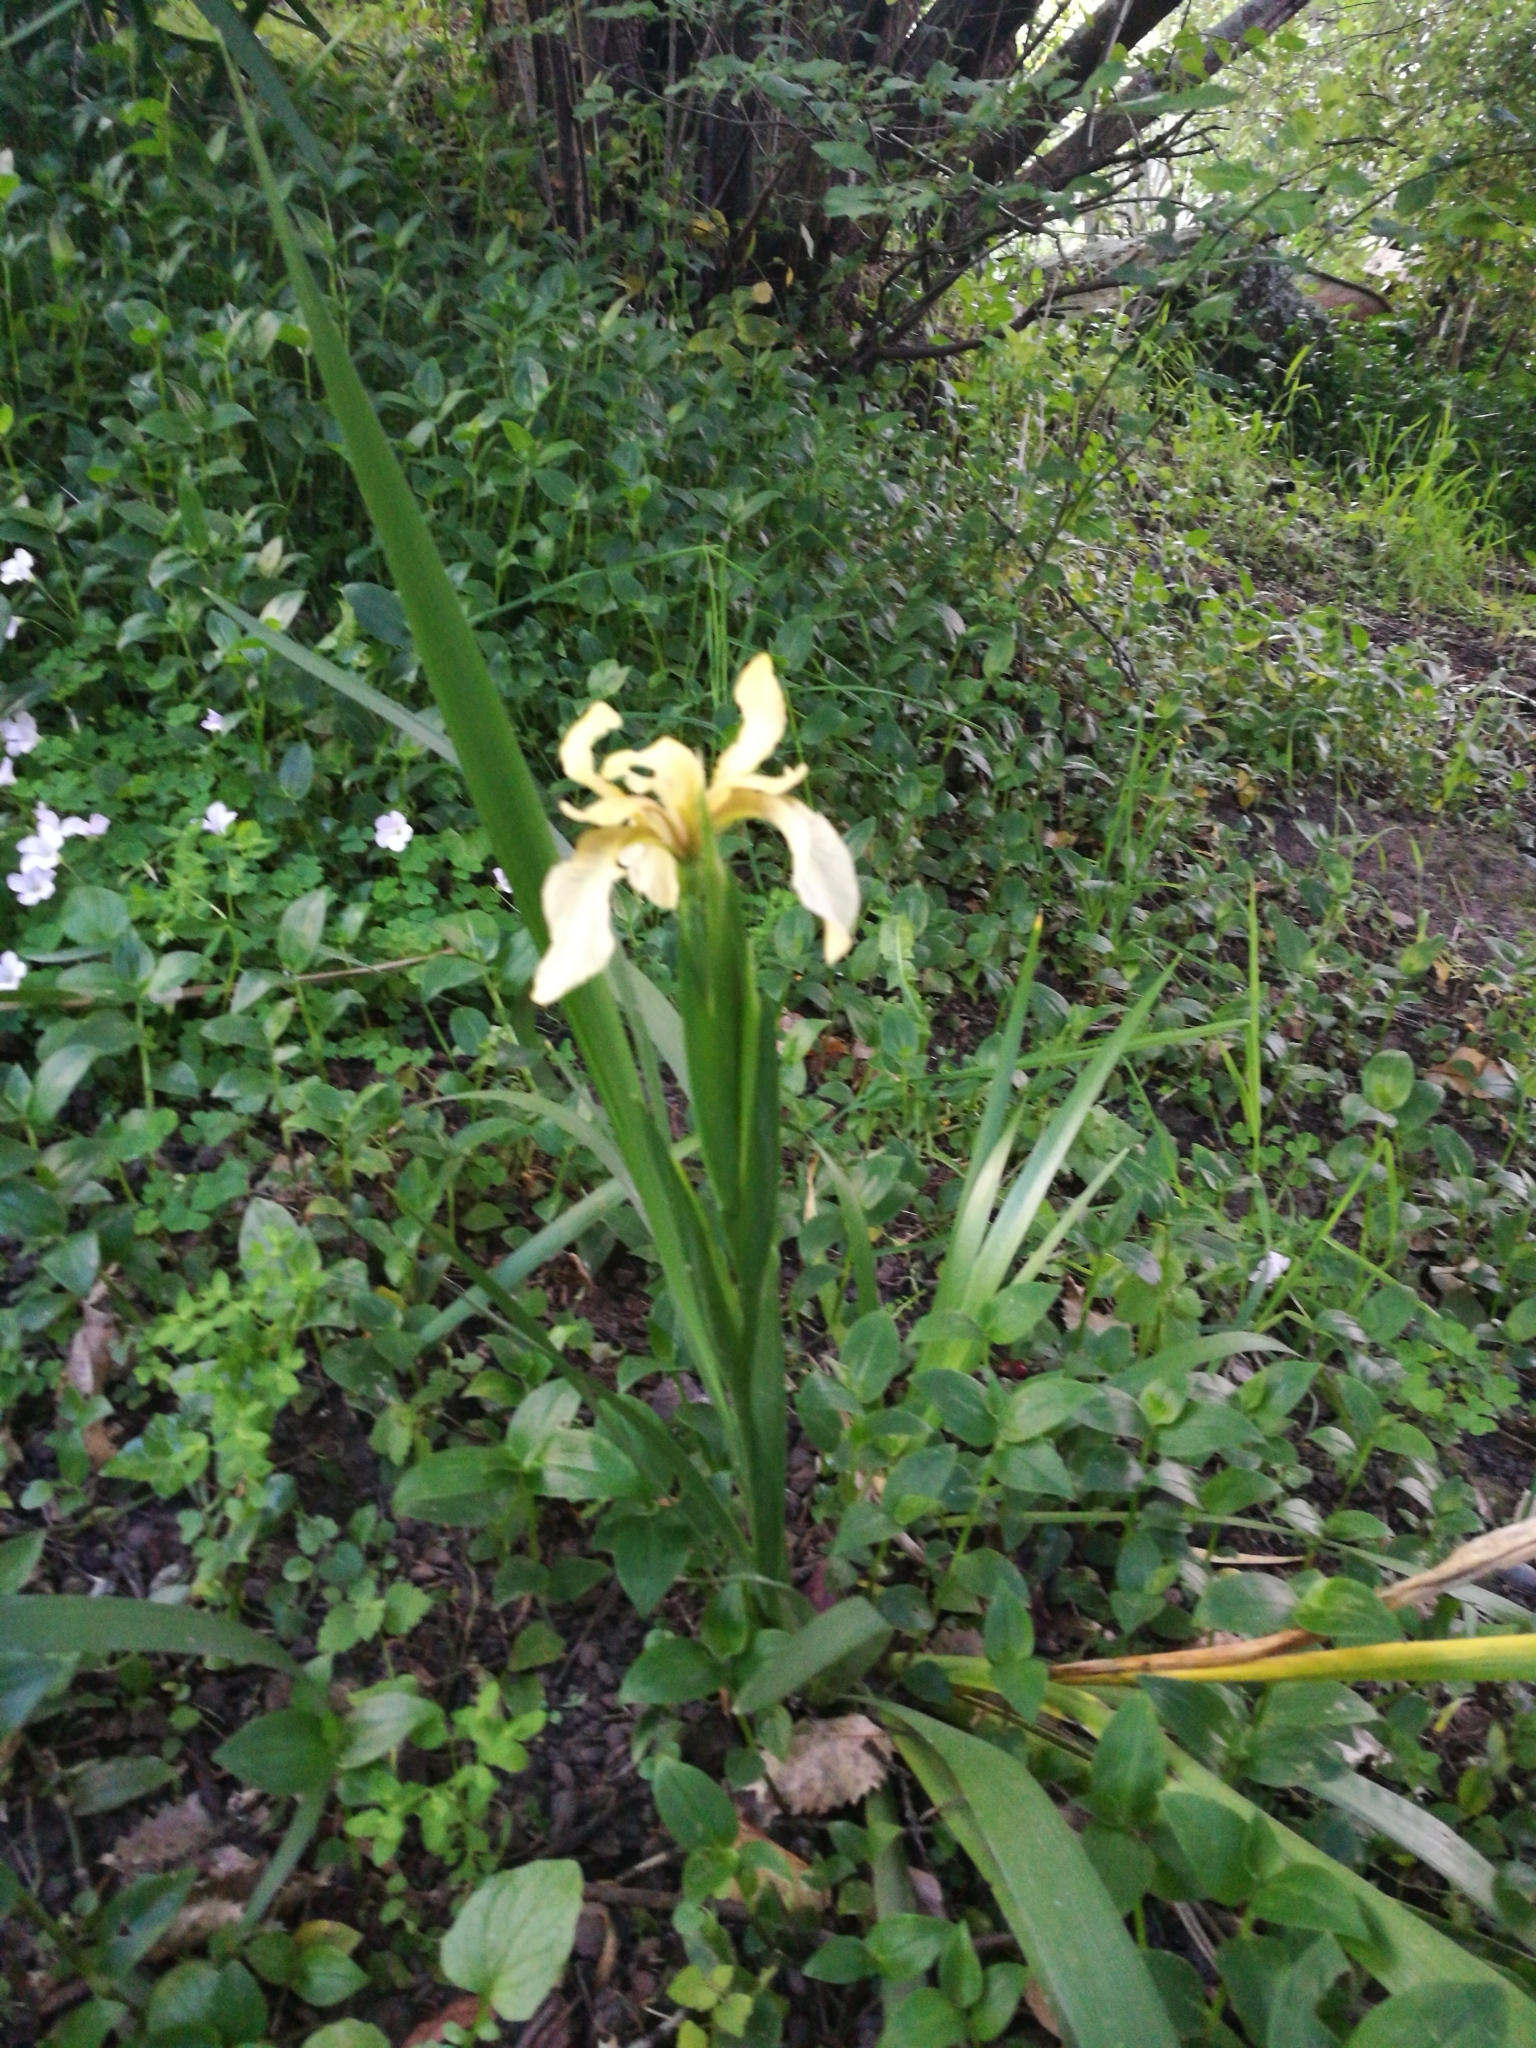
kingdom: Plantae
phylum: Tracheophyta
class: Liliopsida
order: Asparagales
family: Iridaceae
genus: Iris
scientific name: Iris foetidissima
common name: Stinking iris
